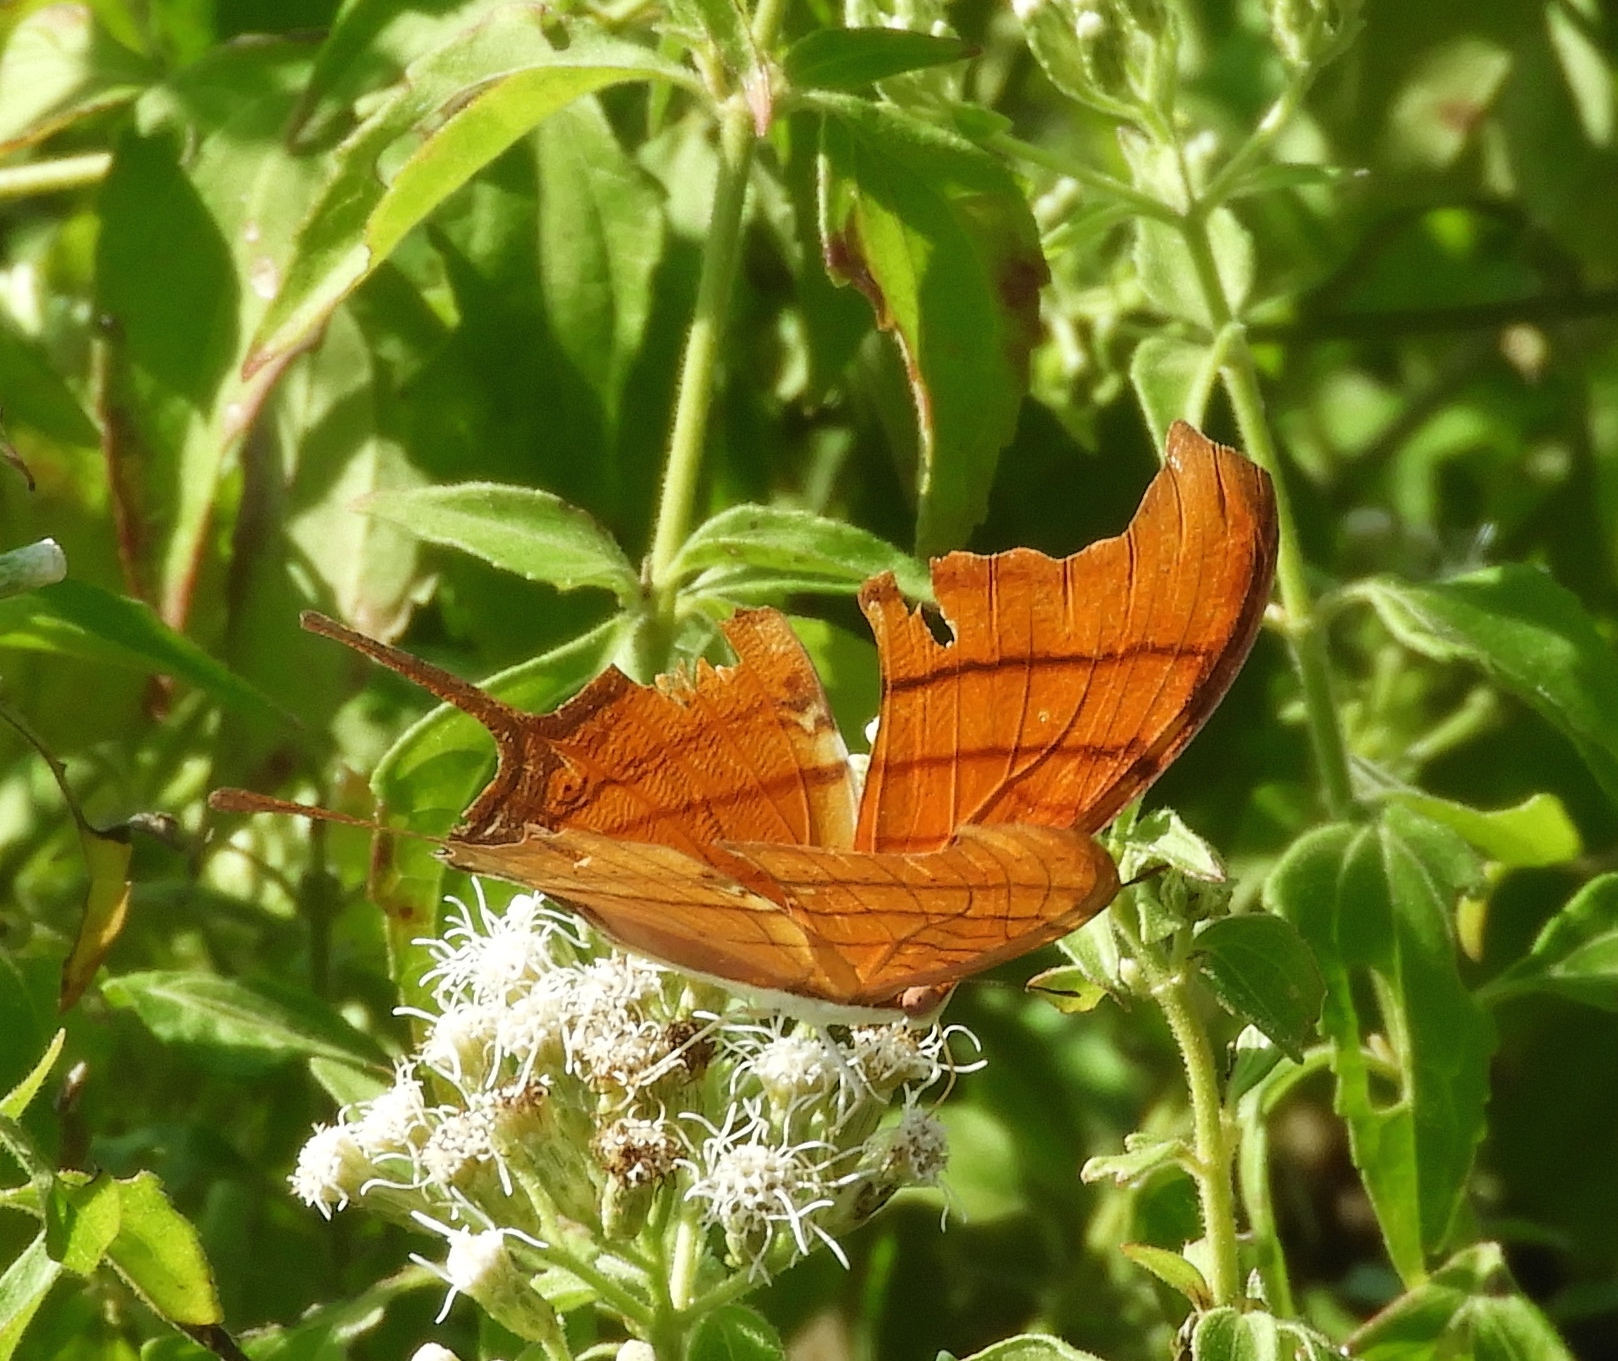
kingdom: Animalia
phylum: Arthropoda
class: Insecta
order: Lepidoptera
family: Nymphalidae
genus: Marpesia
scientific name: Marpesia petreus
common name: Red dagger wing
